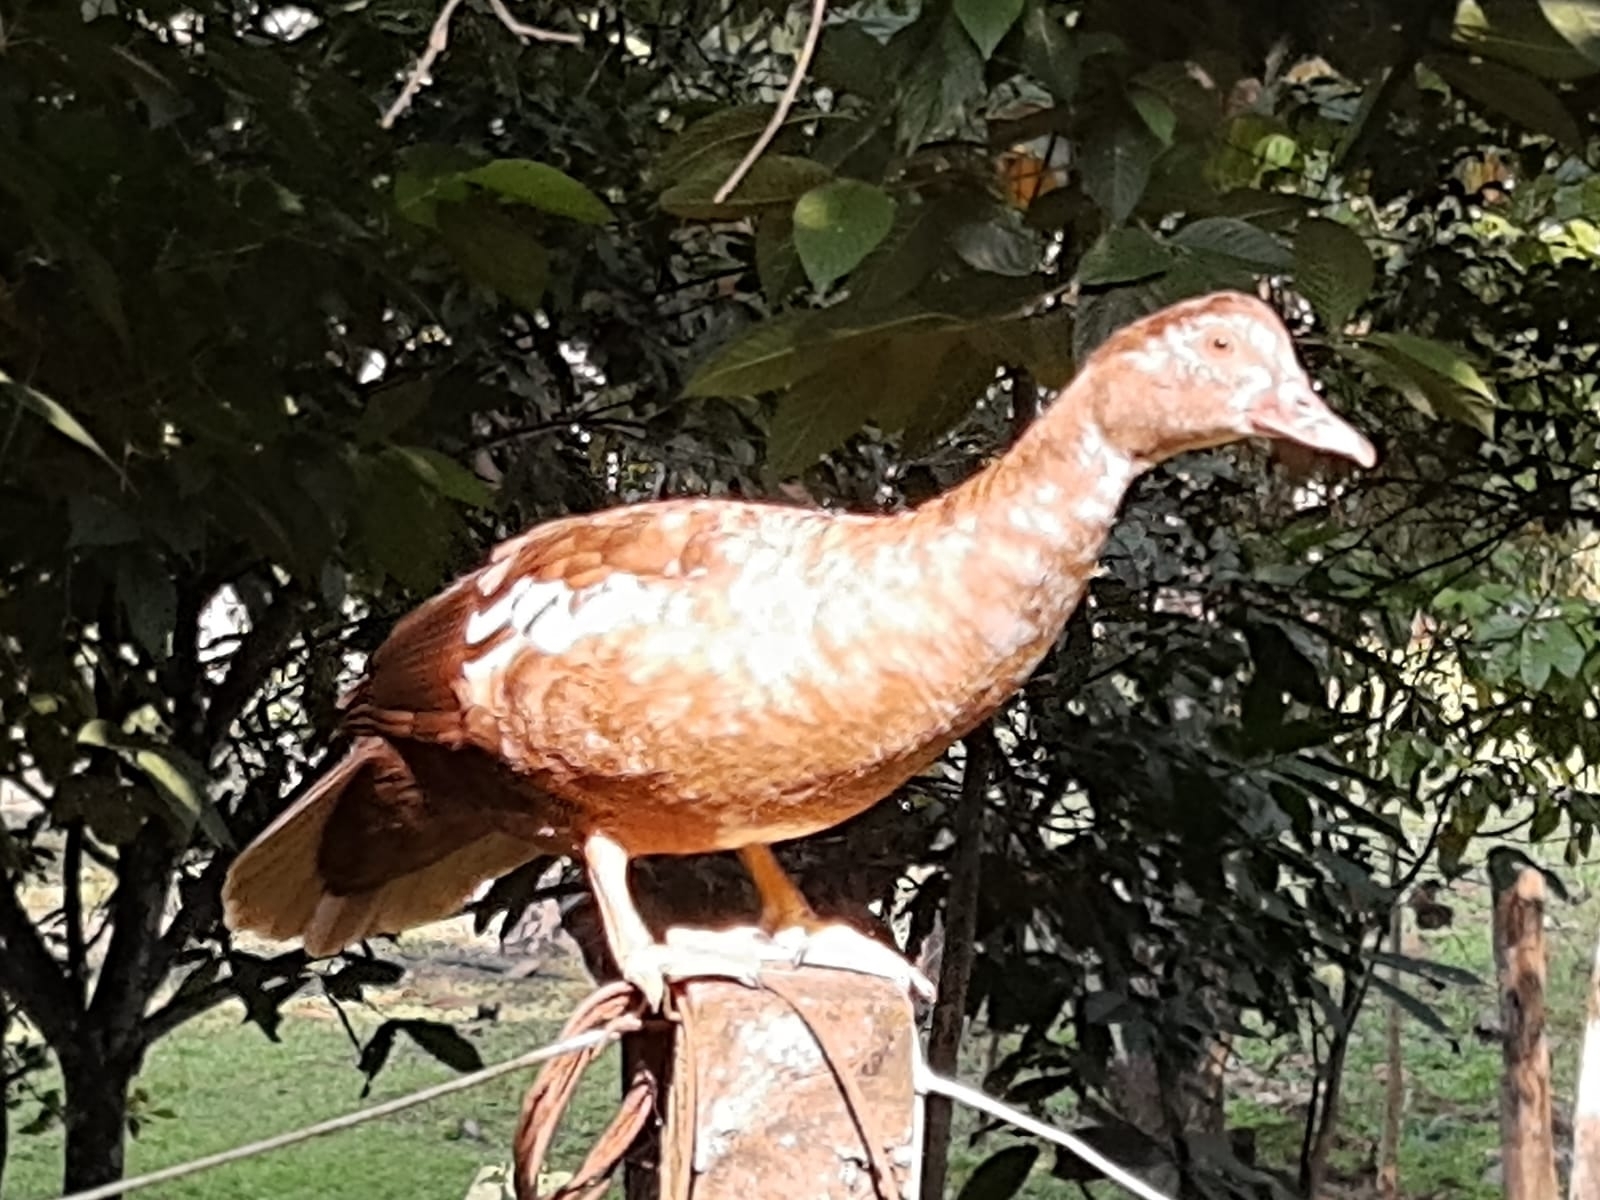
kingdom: Animalia
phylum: Chordata
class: Aves
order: Anseriformes
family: Anatidae
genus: Cairina
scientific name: Cairina moschata
